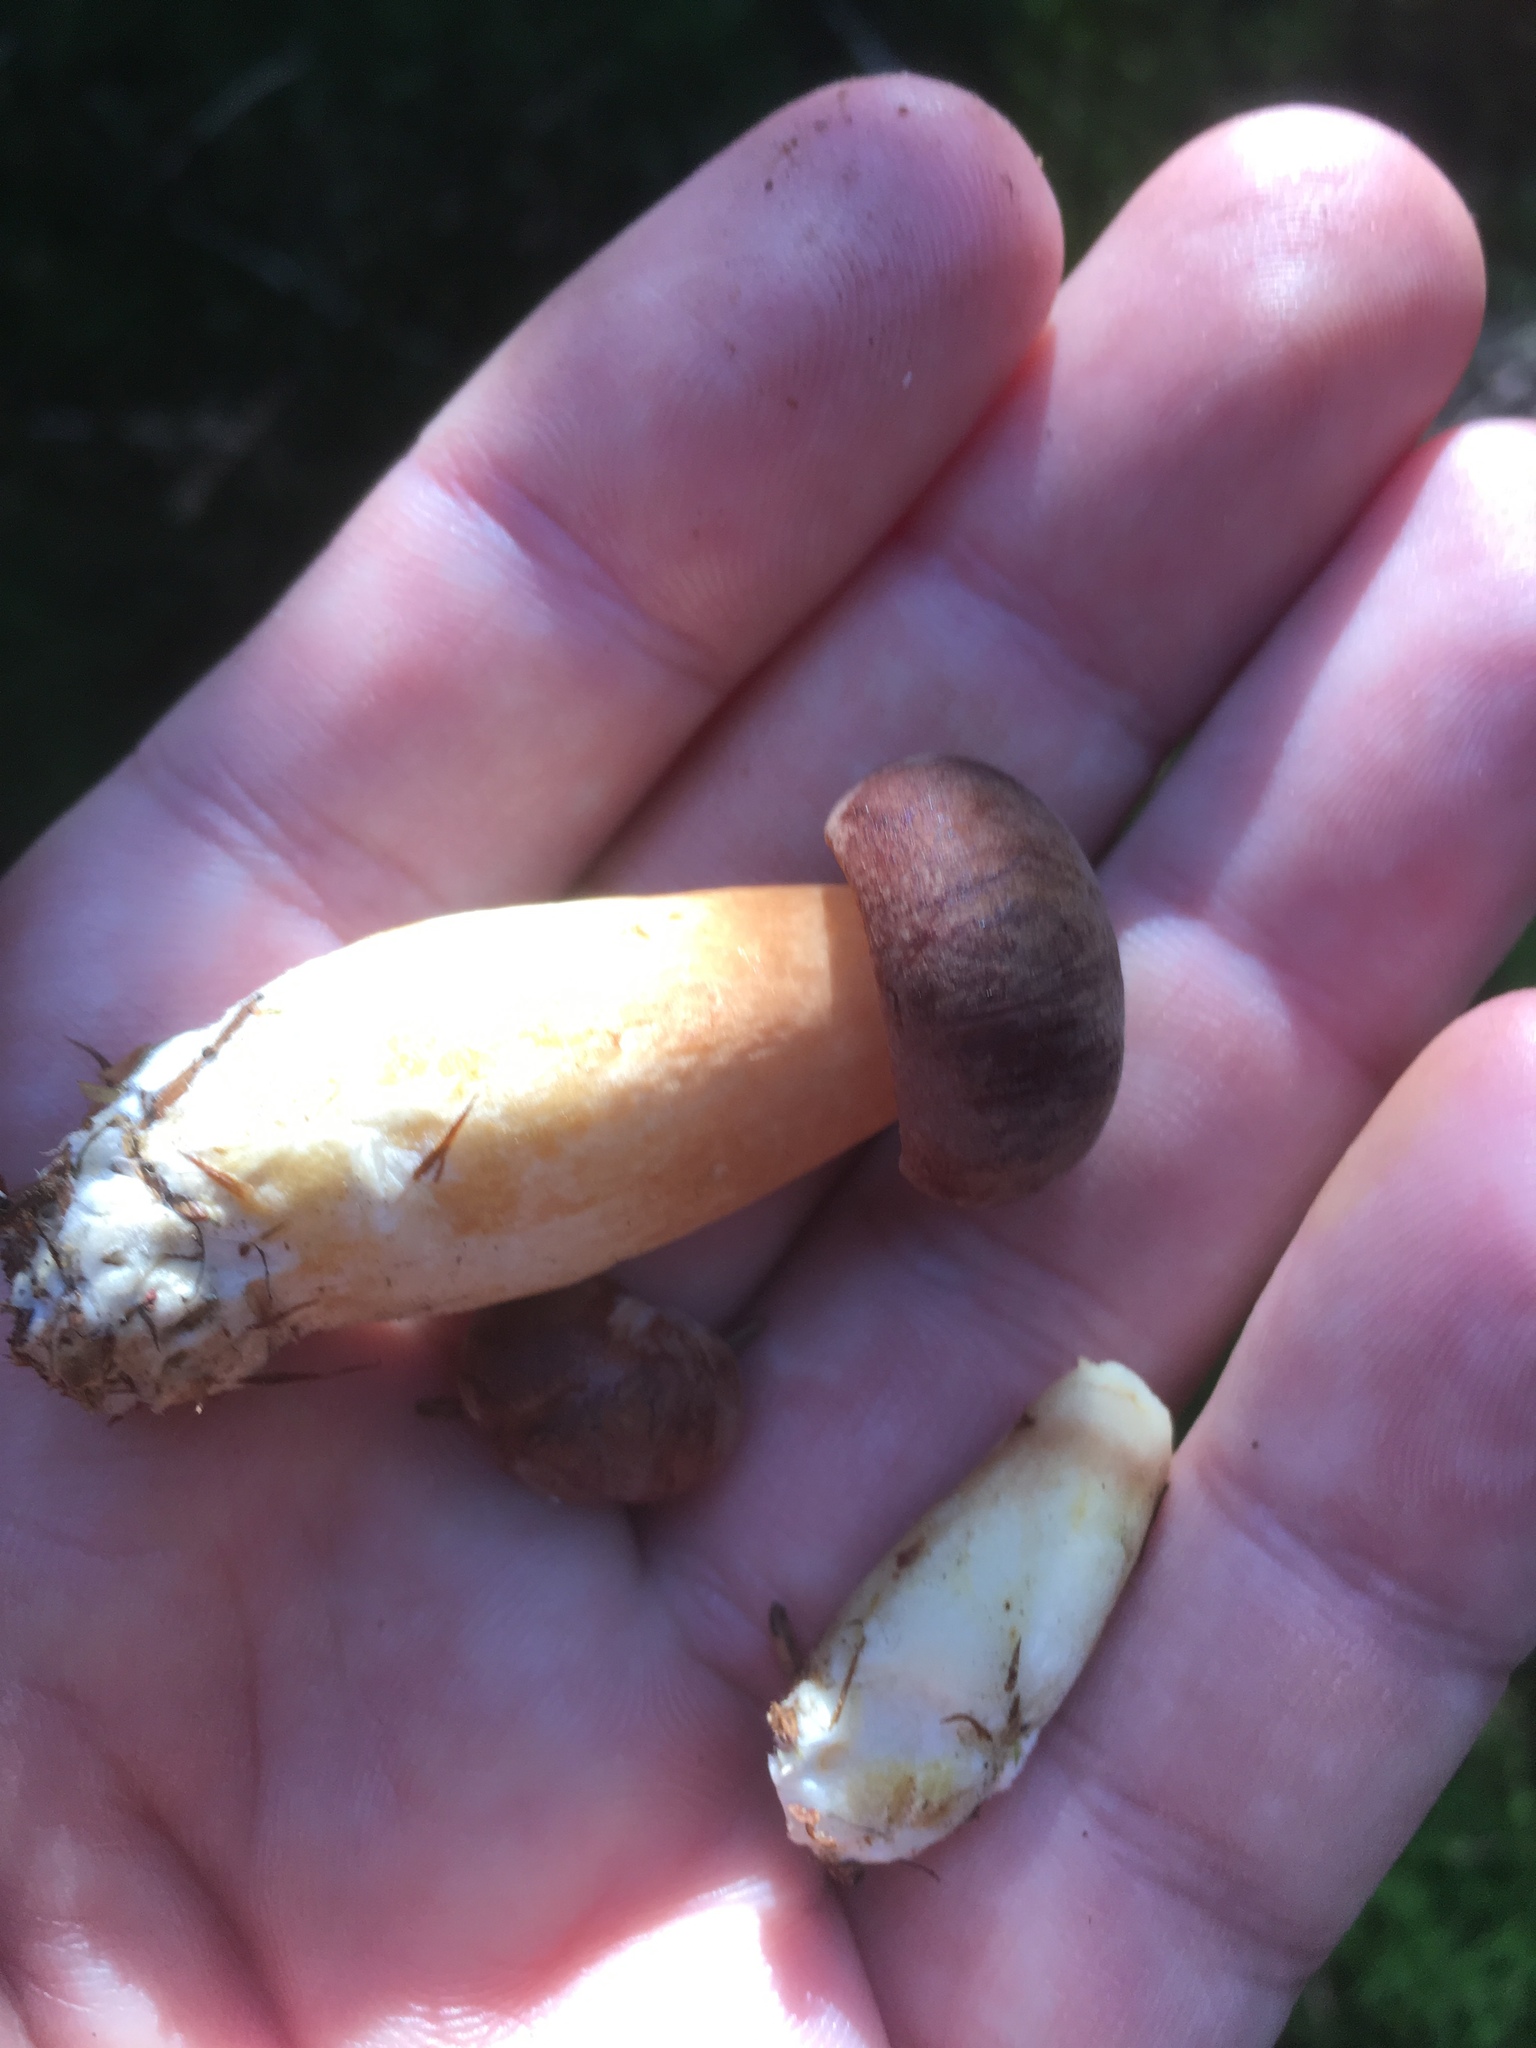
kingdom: Fungi
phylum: Basidiomycota
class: Agaricomycetes
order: Boletales
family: Boletaceae
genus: Imleria
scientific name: Imleria badia
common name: Bay bolete
